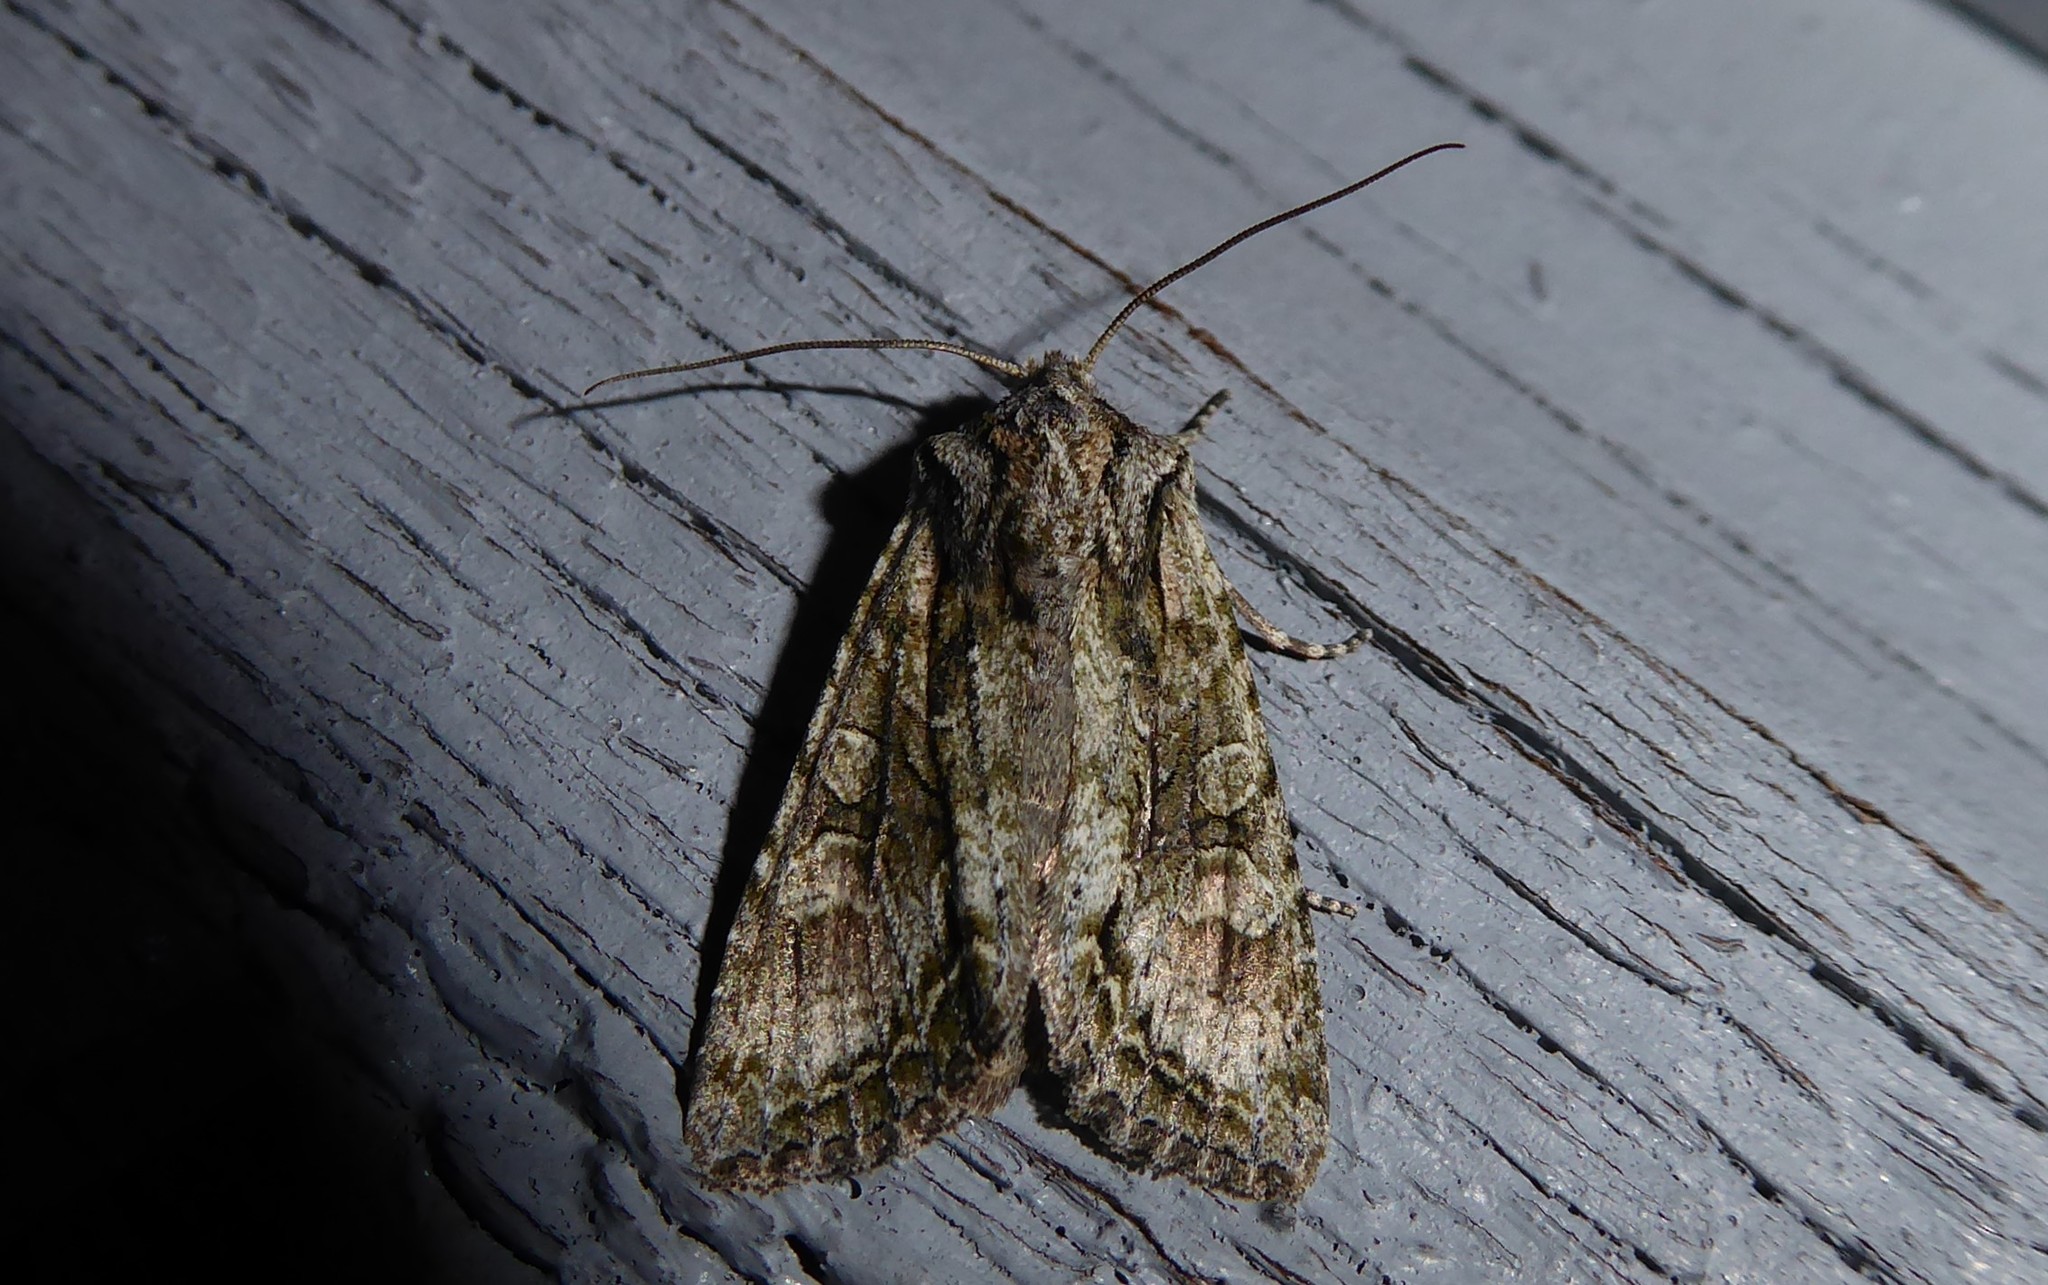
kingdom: Animalia
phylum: Arthropoda
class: Insecta
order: Lepidoptera
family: Noctuidae
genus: Ichneutica
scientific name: Ichneutica mutans
